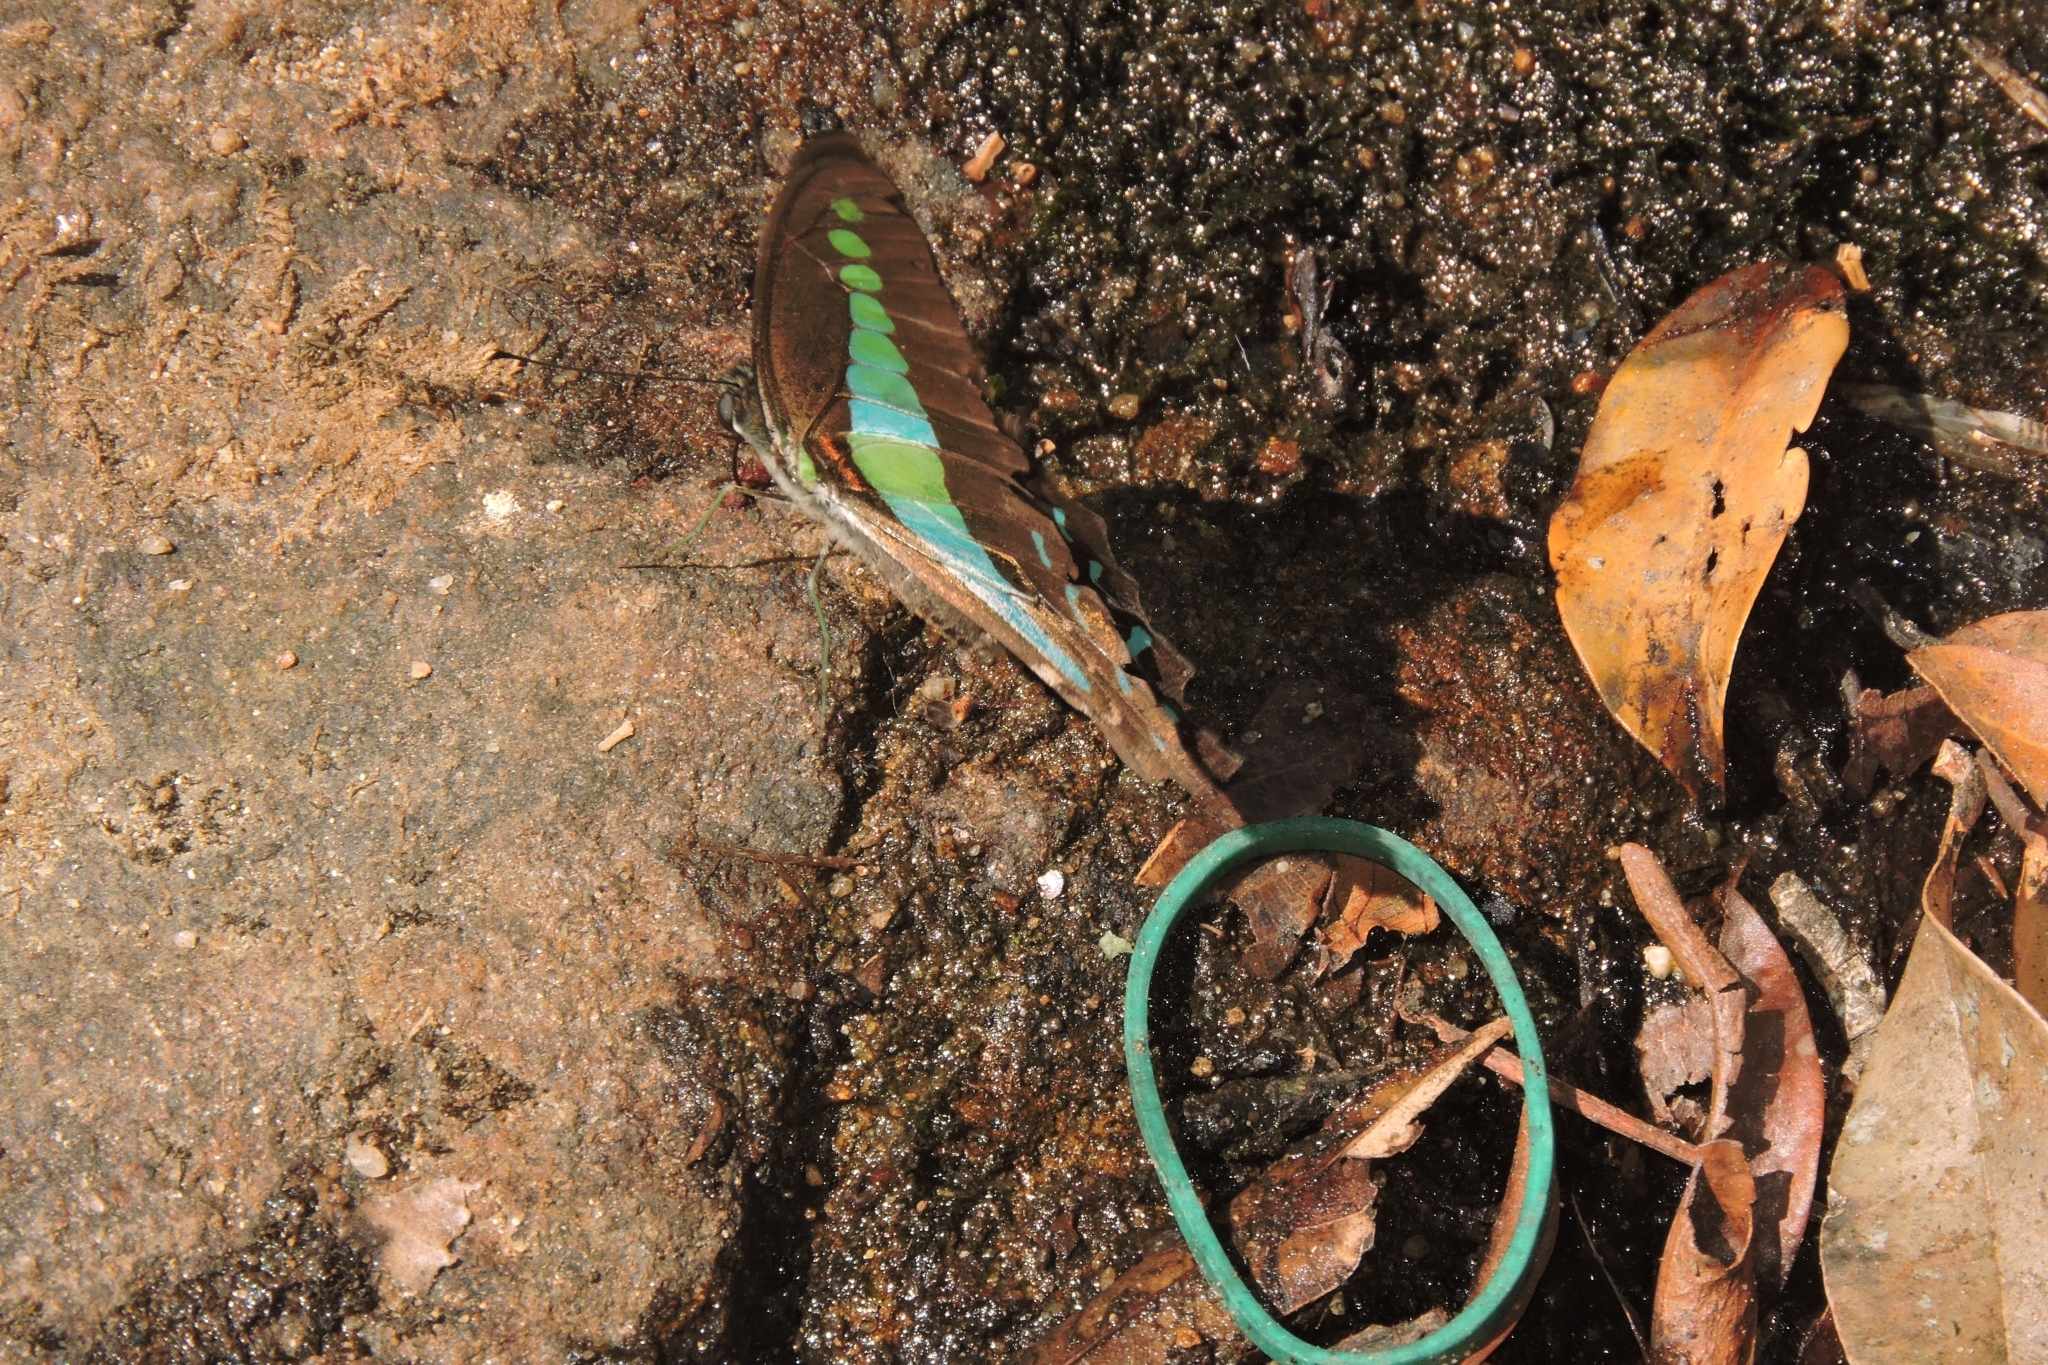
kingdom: Animalia
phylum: Arthropoda
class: Insecta
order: Lepidoptera
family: Papilionidae
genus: Graphium
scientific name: Graphium
